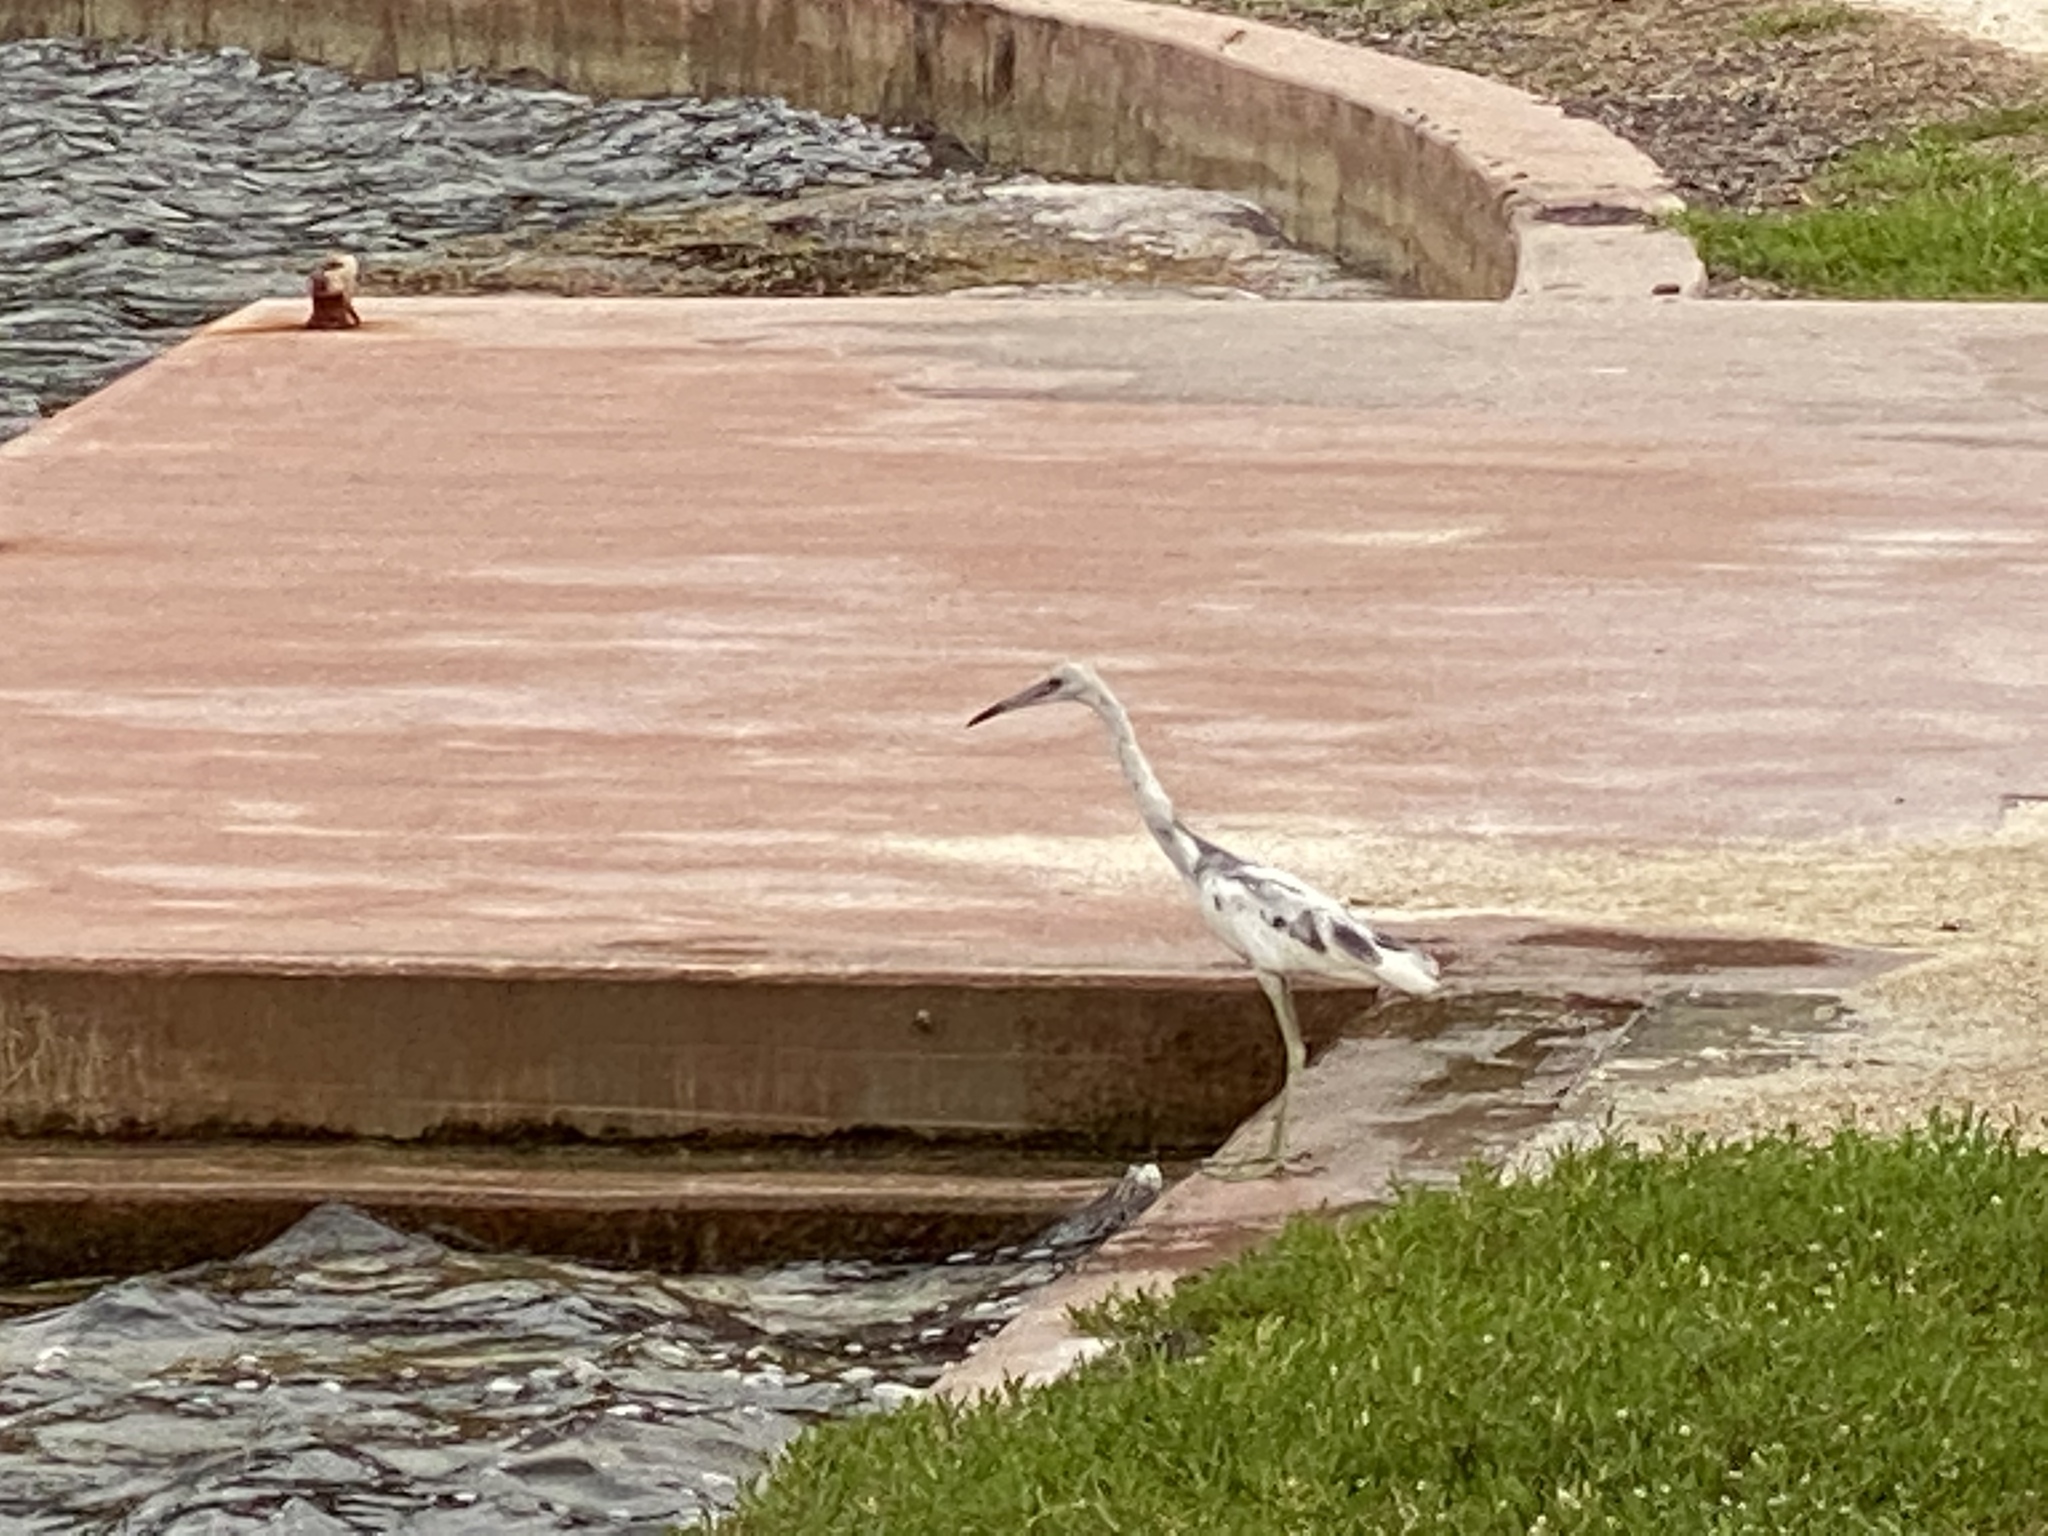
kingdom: Animalia
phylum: Chordata
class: Aves
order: Pelecaniformes
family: Ardeidae
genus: Egretta
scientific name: Egretta caerulea
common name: Little blue heron
